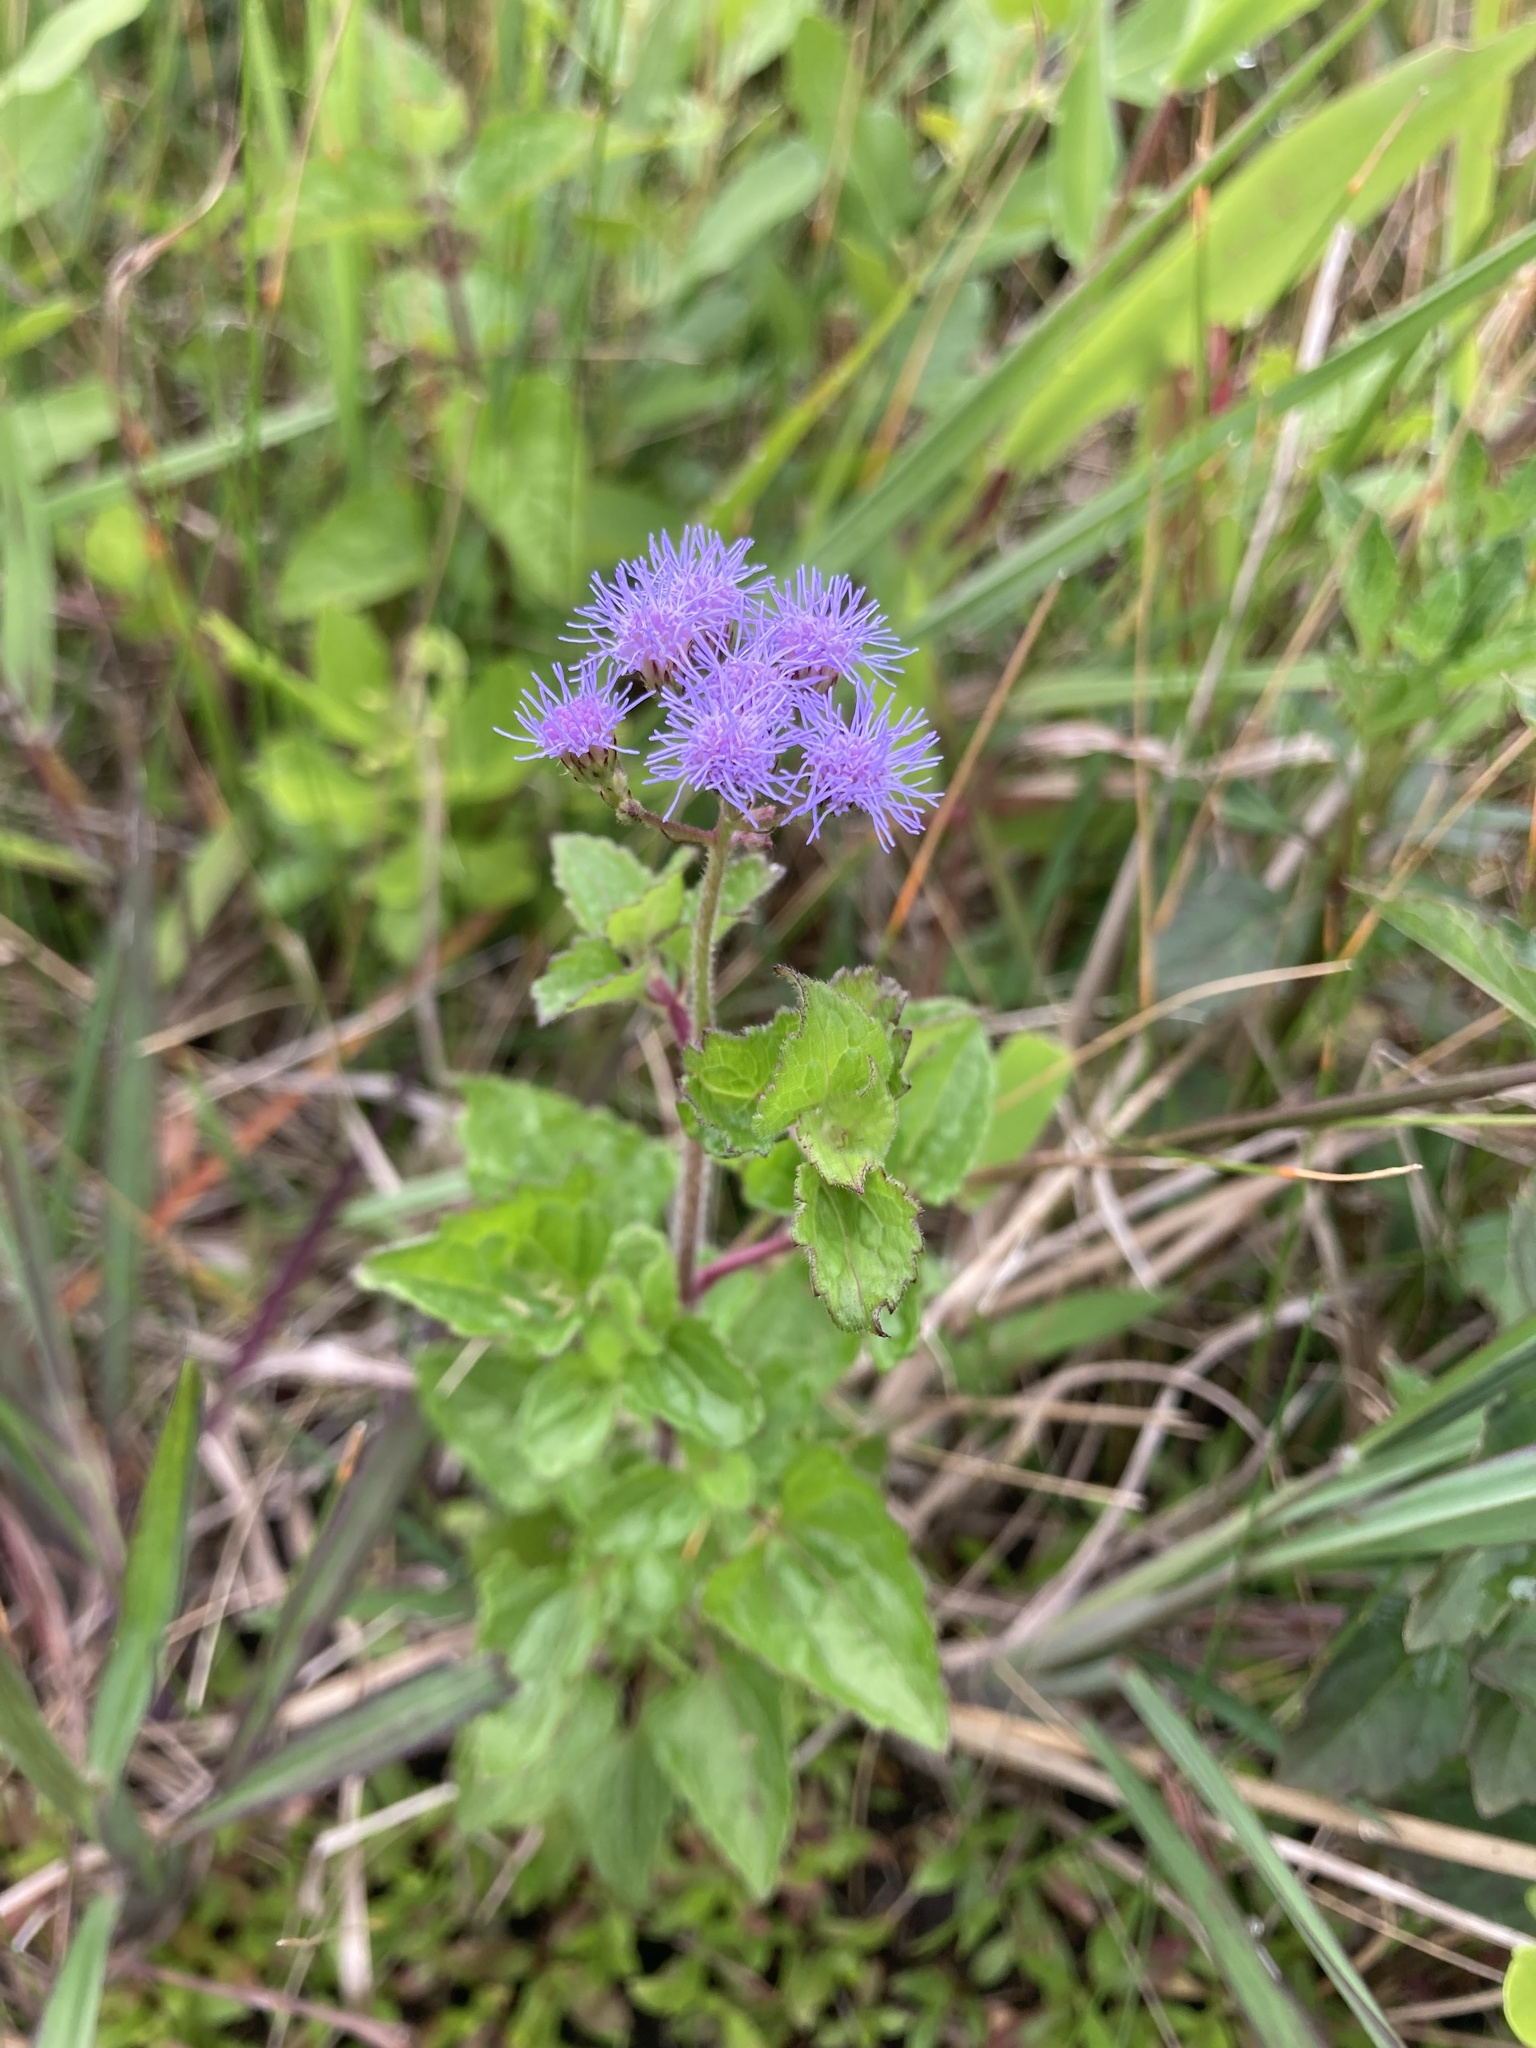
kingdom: Plantae
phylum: Tracheophyta
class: Magnoliopsida
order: Asterales
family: Asteraceae
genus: Conoclinium
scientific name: Conoclinium coelestinum
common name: Blue mistflower
